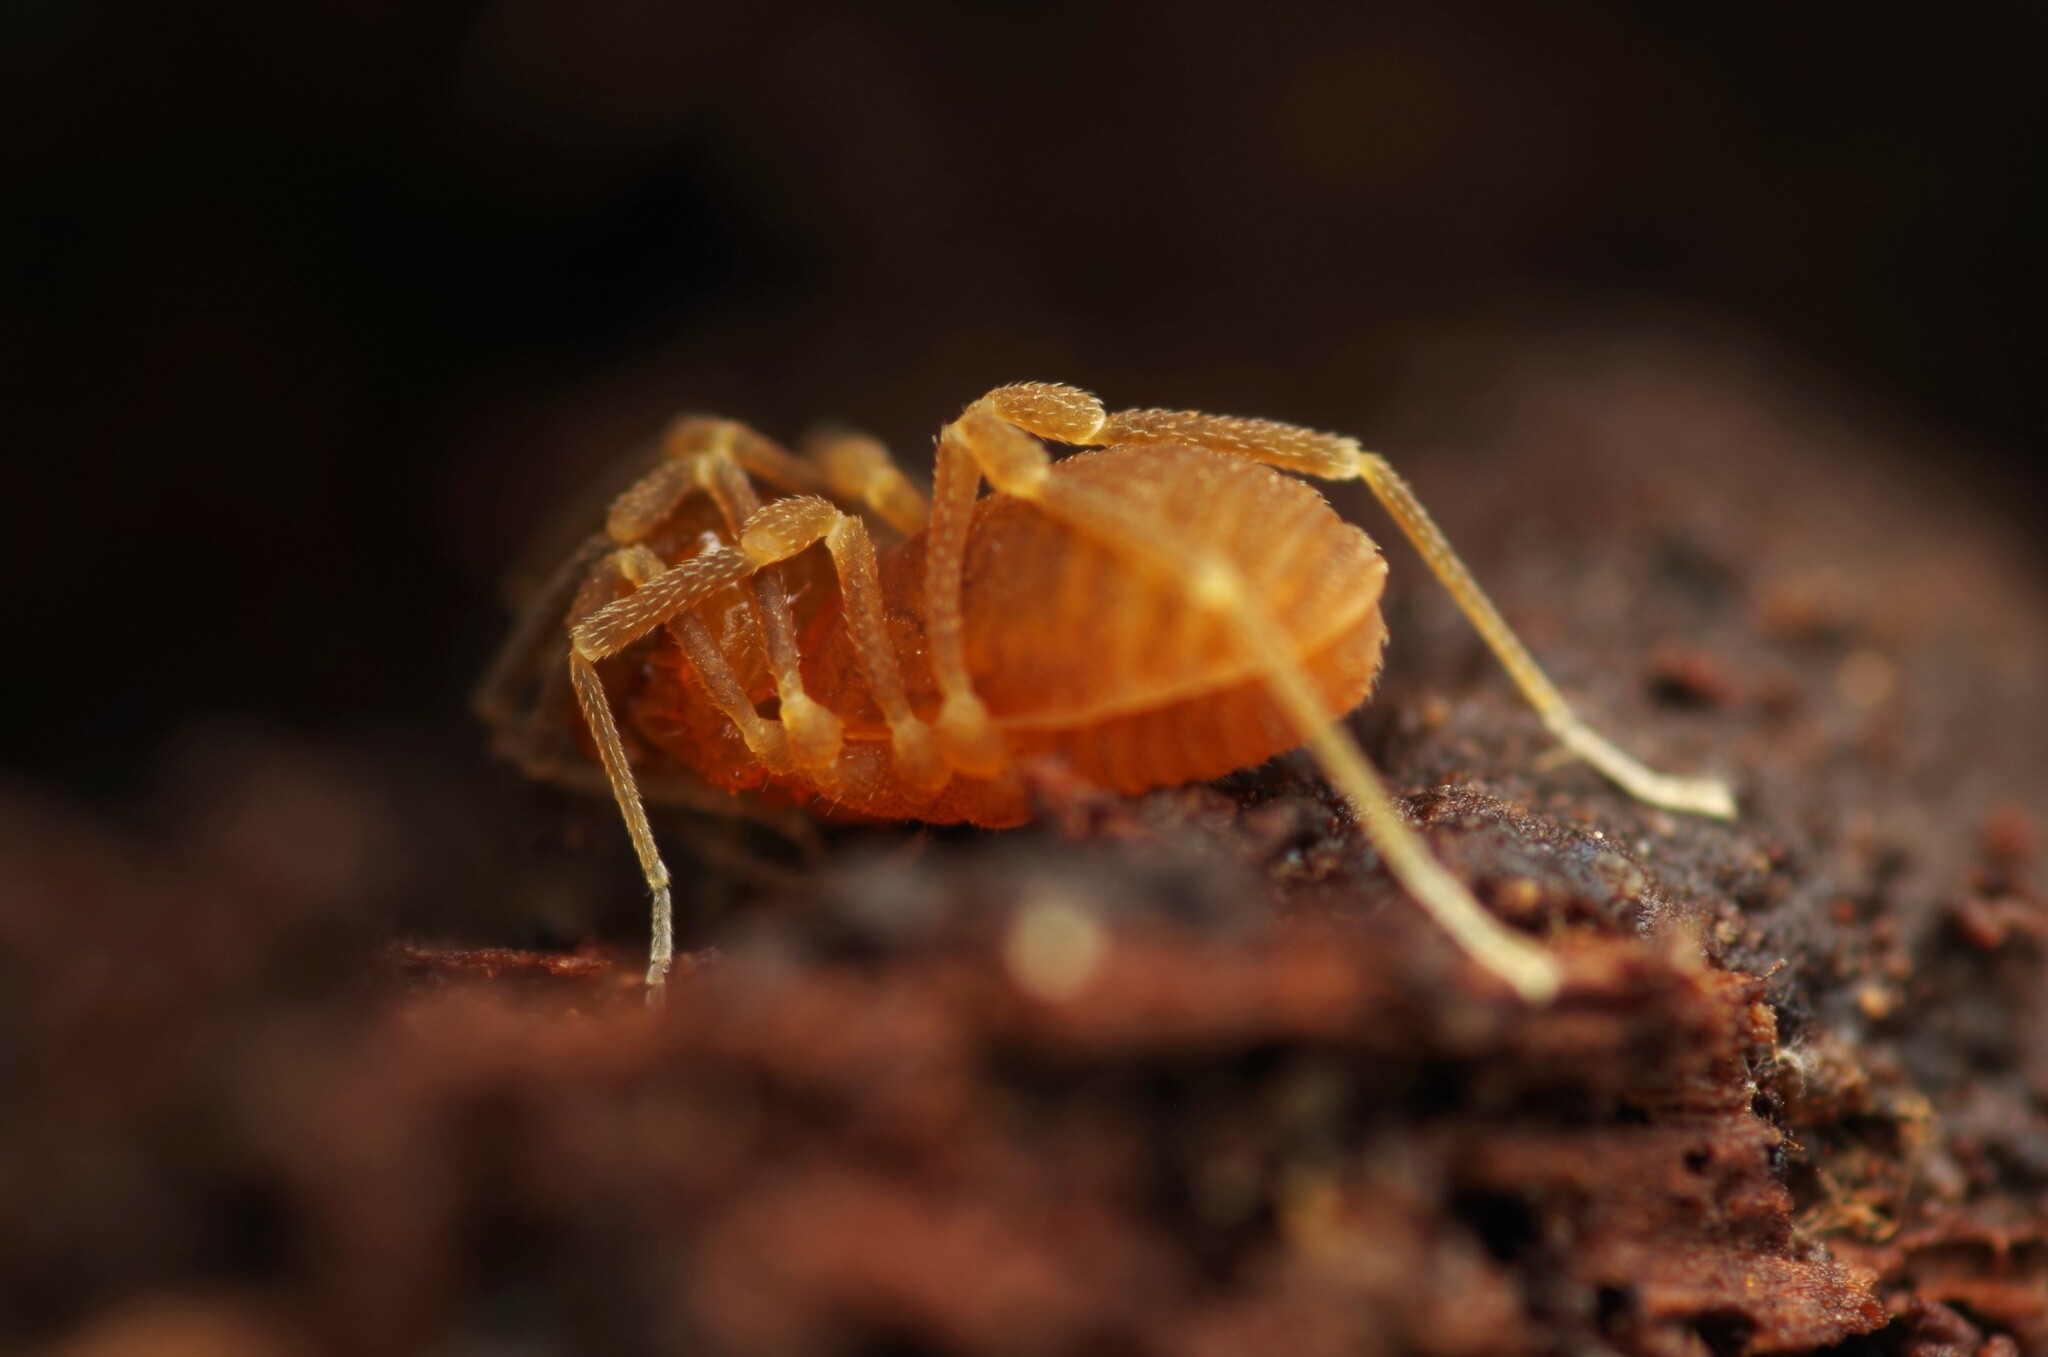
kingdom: Animalia
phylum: Arthropoda
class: Arachnida
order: Opiliones
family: Cladonychiidae
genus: Holoscotolemon
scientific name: Holoscotolemon querilhaci
